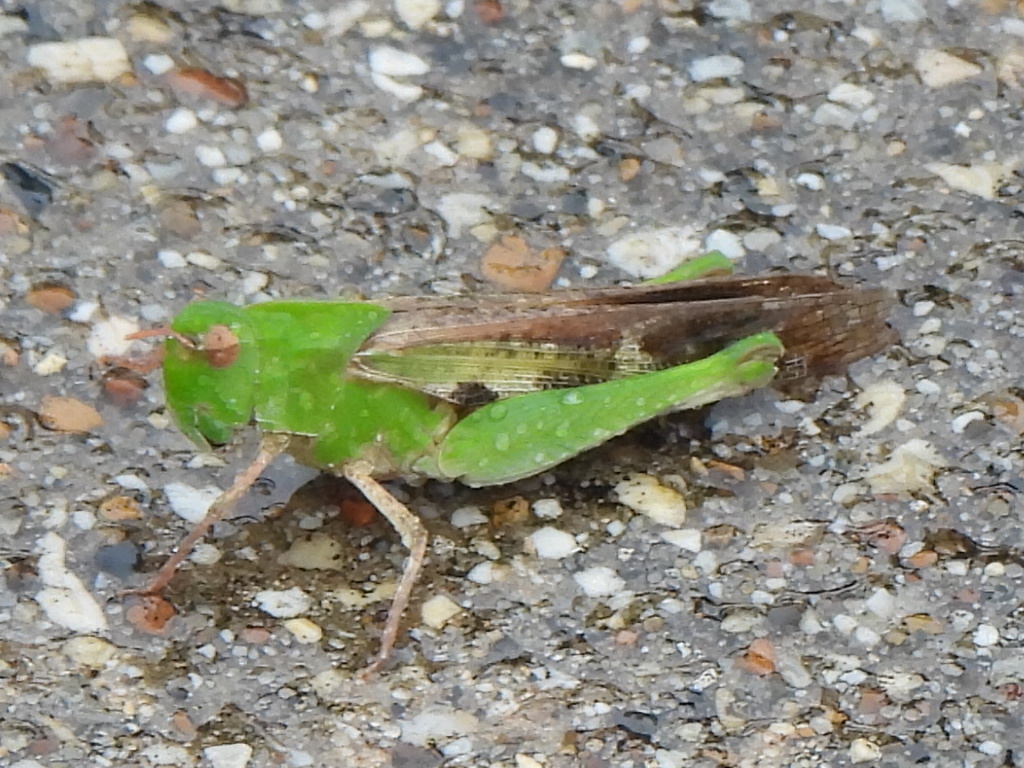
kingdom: Animalia
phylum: Arthropoda
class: Insecta
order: Orthoptera
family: Acrididae
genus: Chortophaga
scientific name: Chortophaga viridifasciata
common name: Green-striped grasshopper
